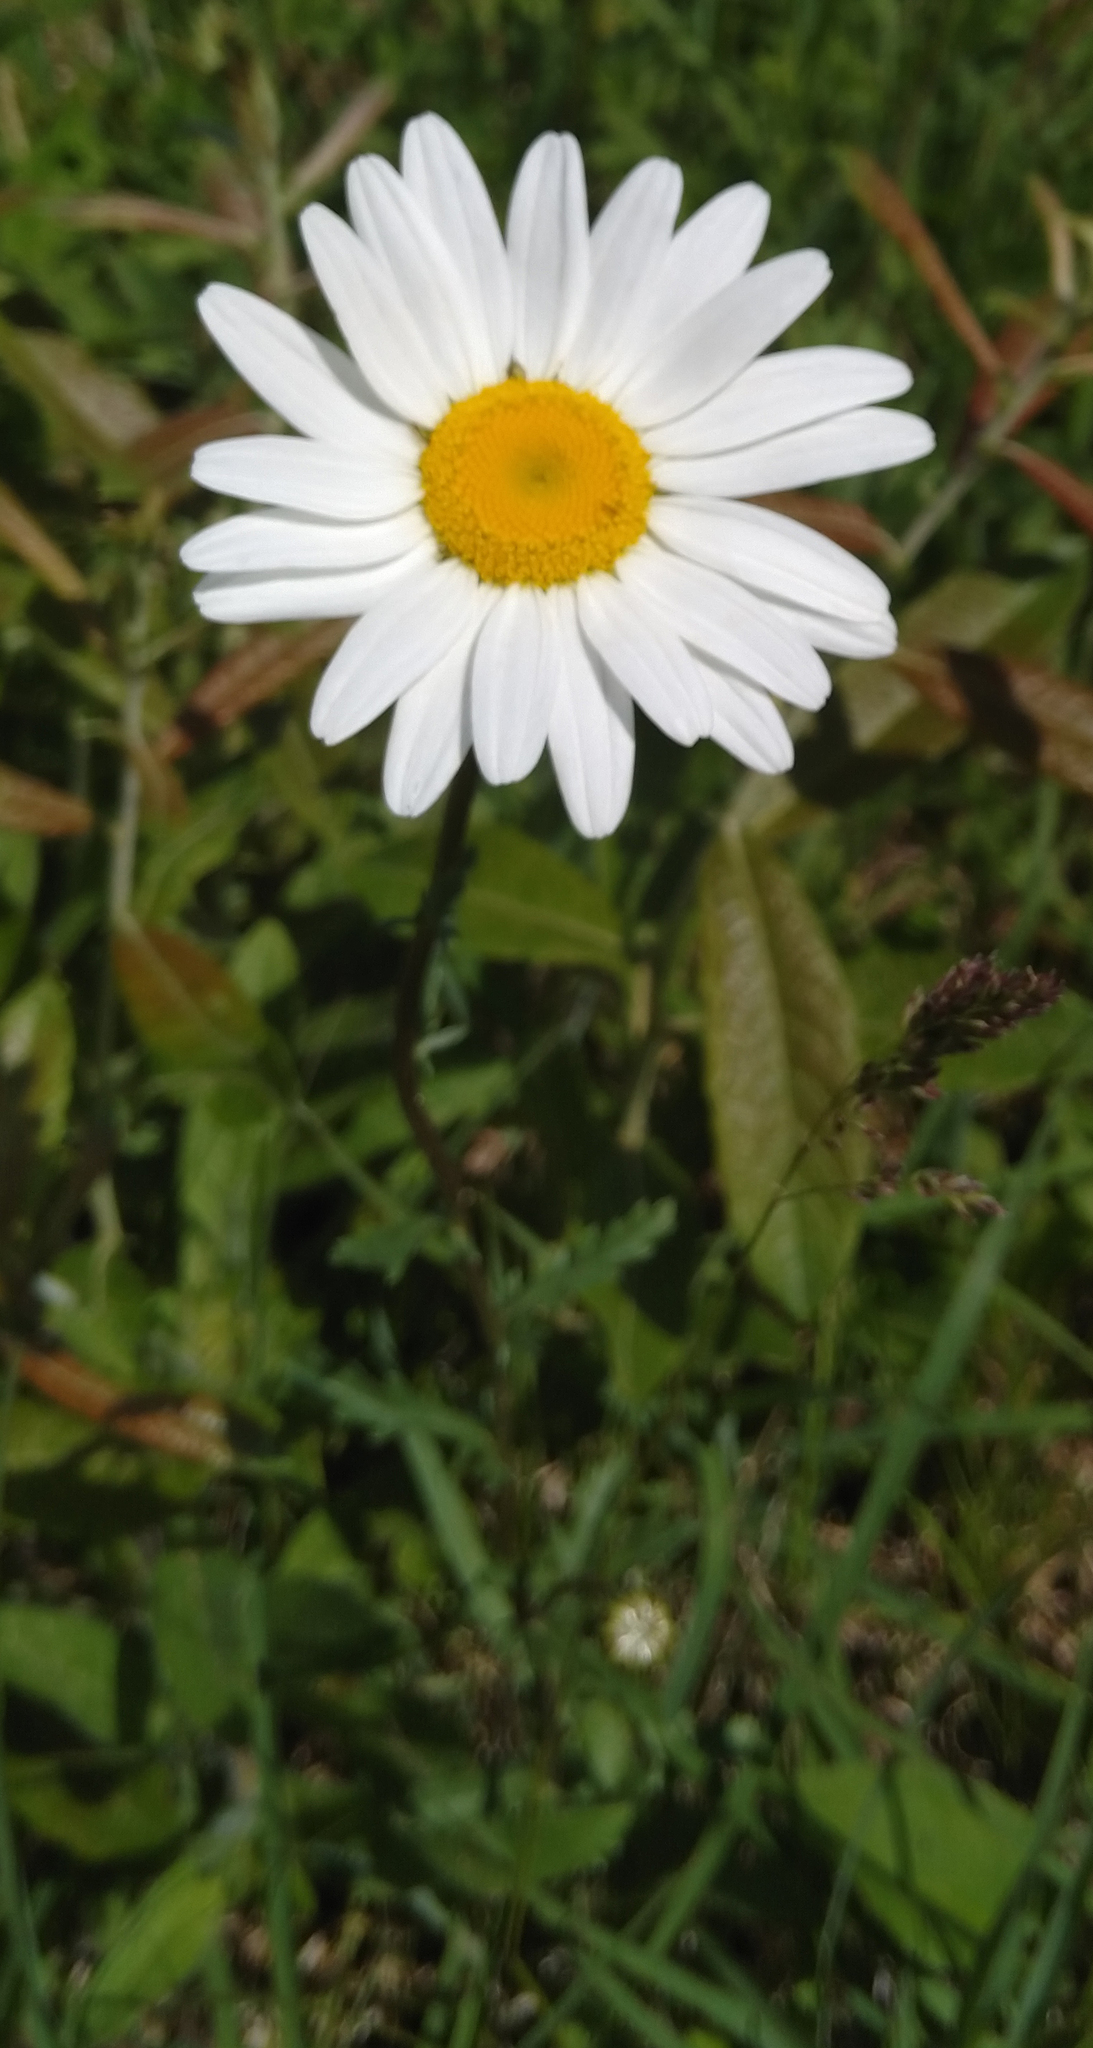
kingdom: Plantae
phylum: Tracheophyta
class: Magnoliopsida
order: Asterales
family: Asteraceae
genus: Leucanthemum
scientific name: Leucanthemum vulgare
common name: Oxeye daisy
